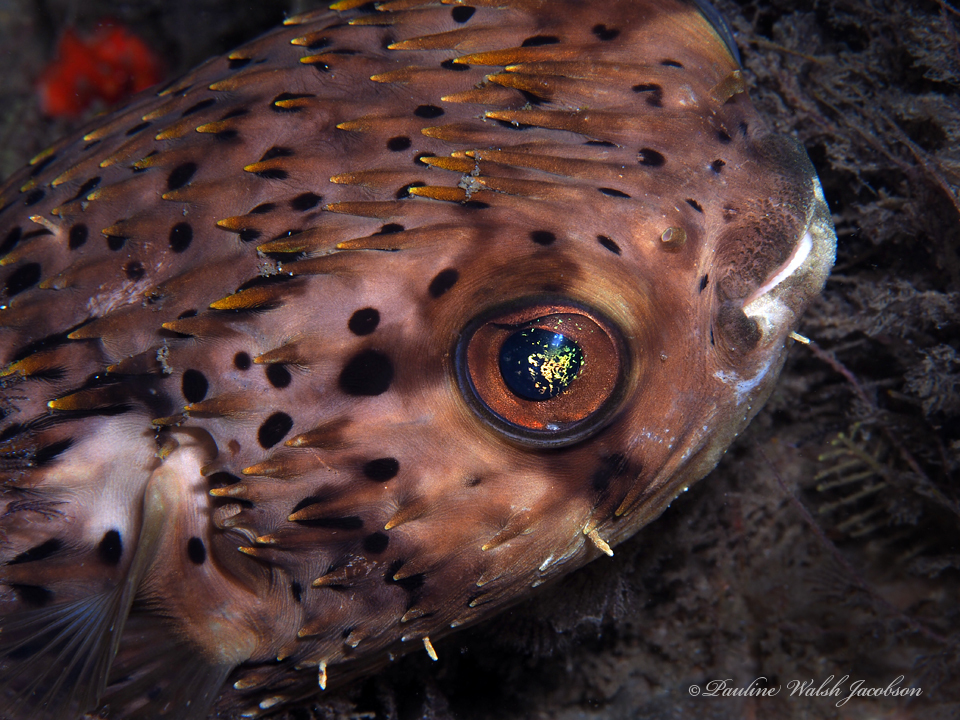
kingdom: Animalia
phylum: Chordata
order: Tetraodontiformes
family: Diodontidae
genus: Diodon
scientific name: Diodon holocanthus
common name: Balloonfish
